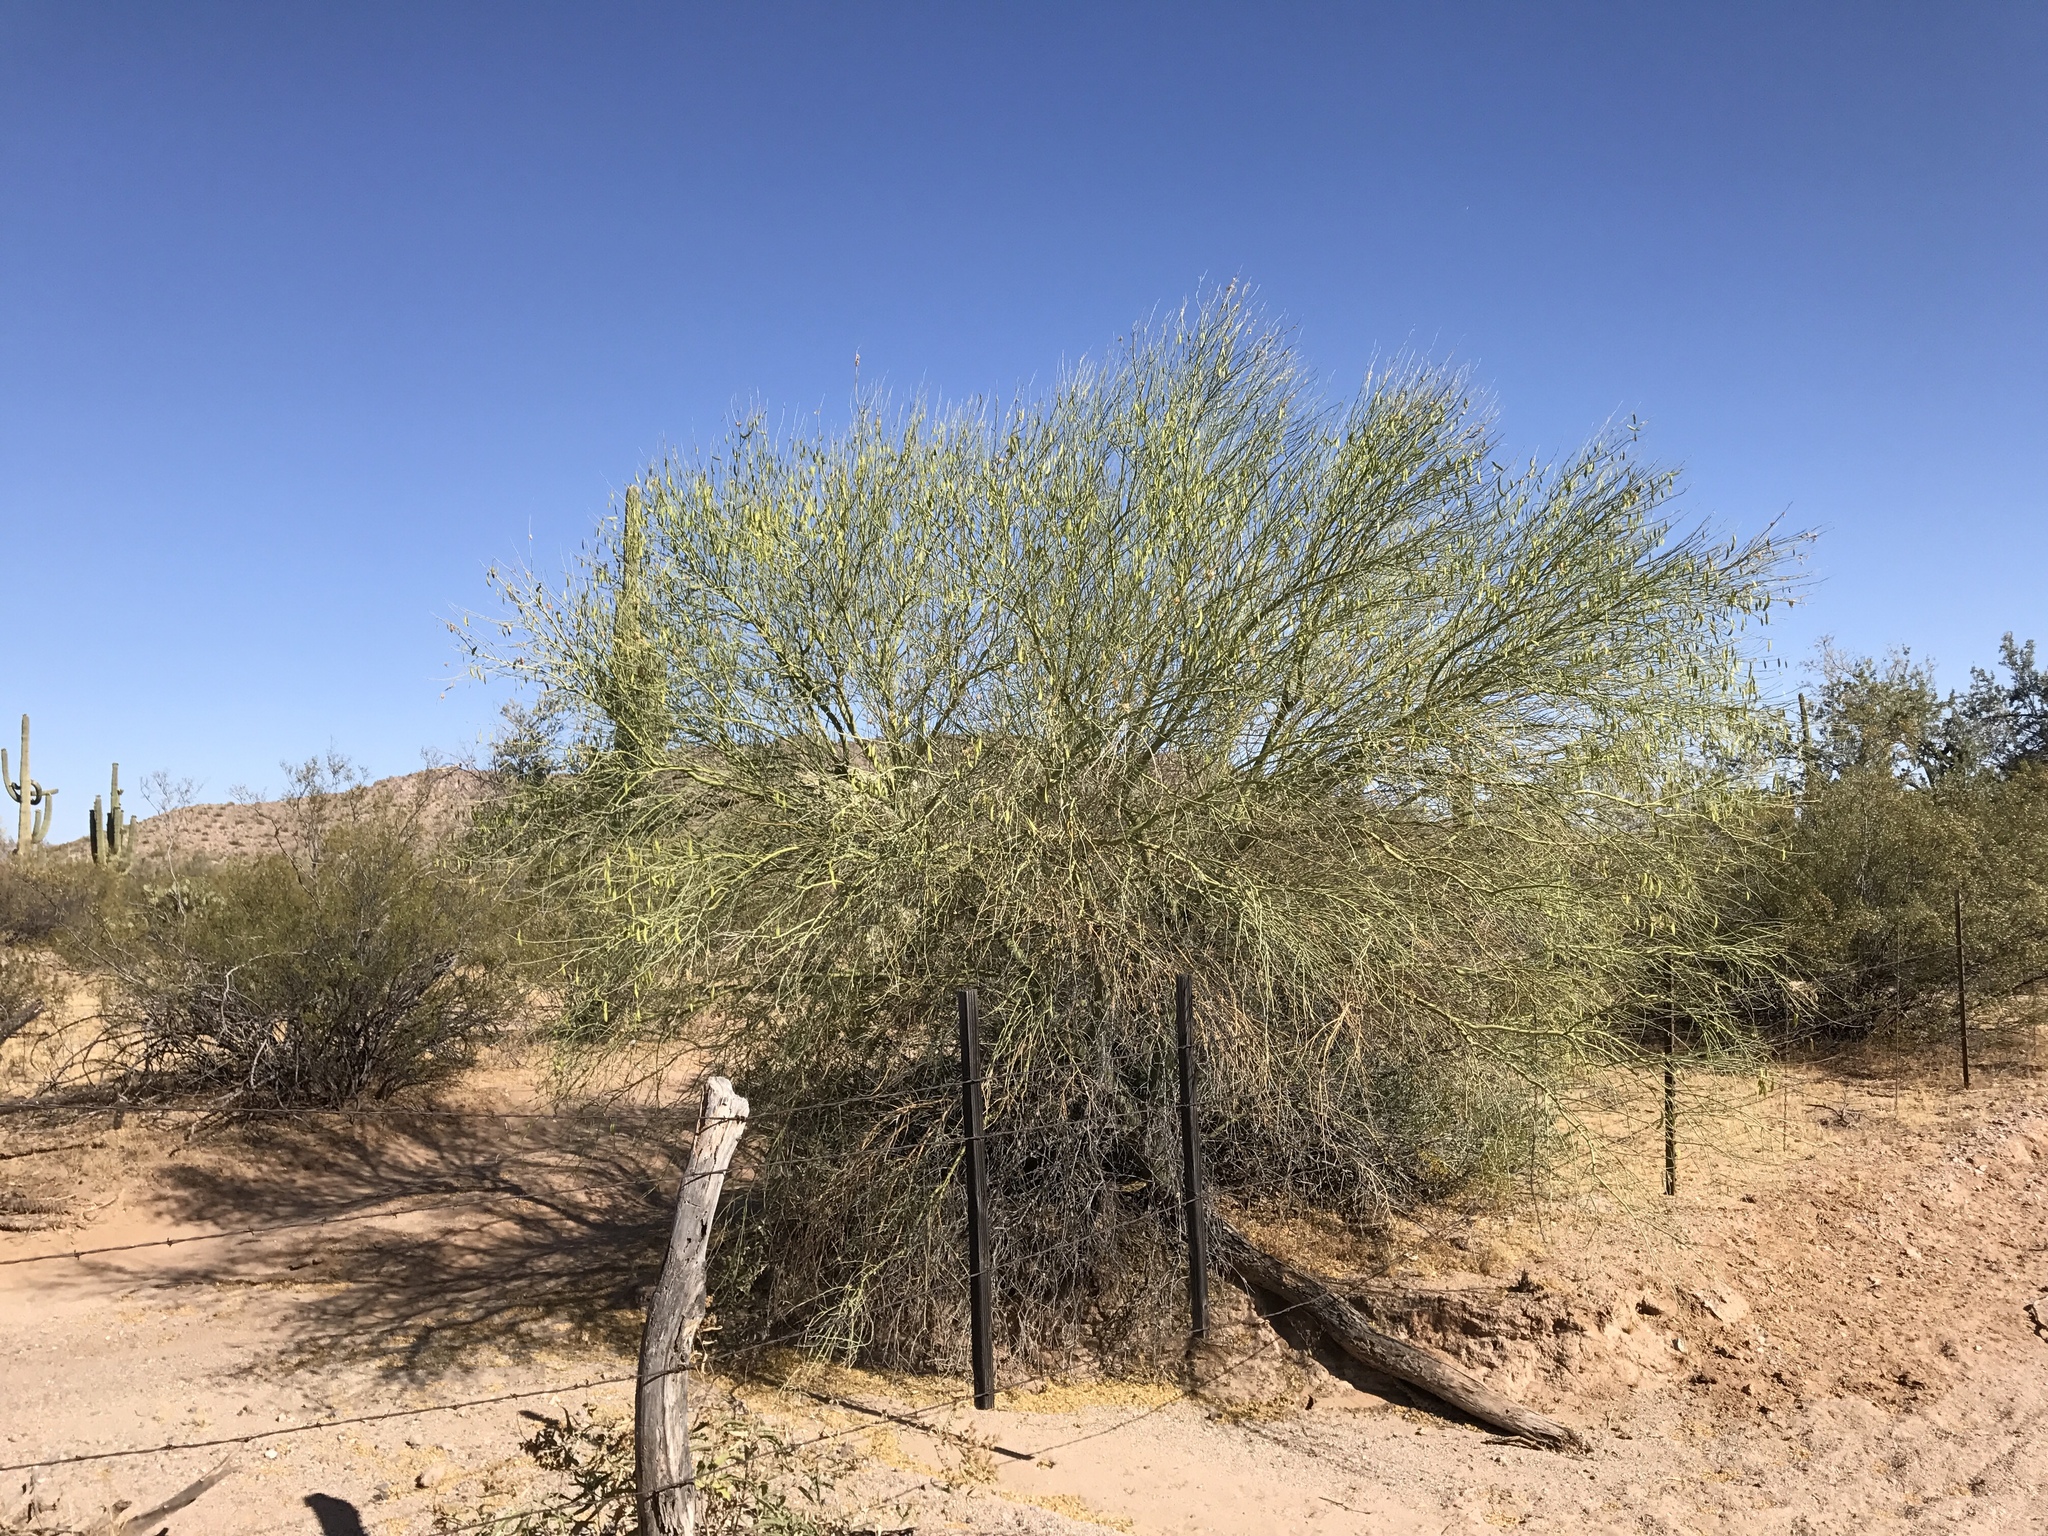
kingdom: Plantae
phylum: Tracheophyta
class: Magnoliopsida
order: Fabales
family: Fabaceae
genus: Parkinsonia
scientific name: Parkinsonia florida
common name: Blue paloverde
